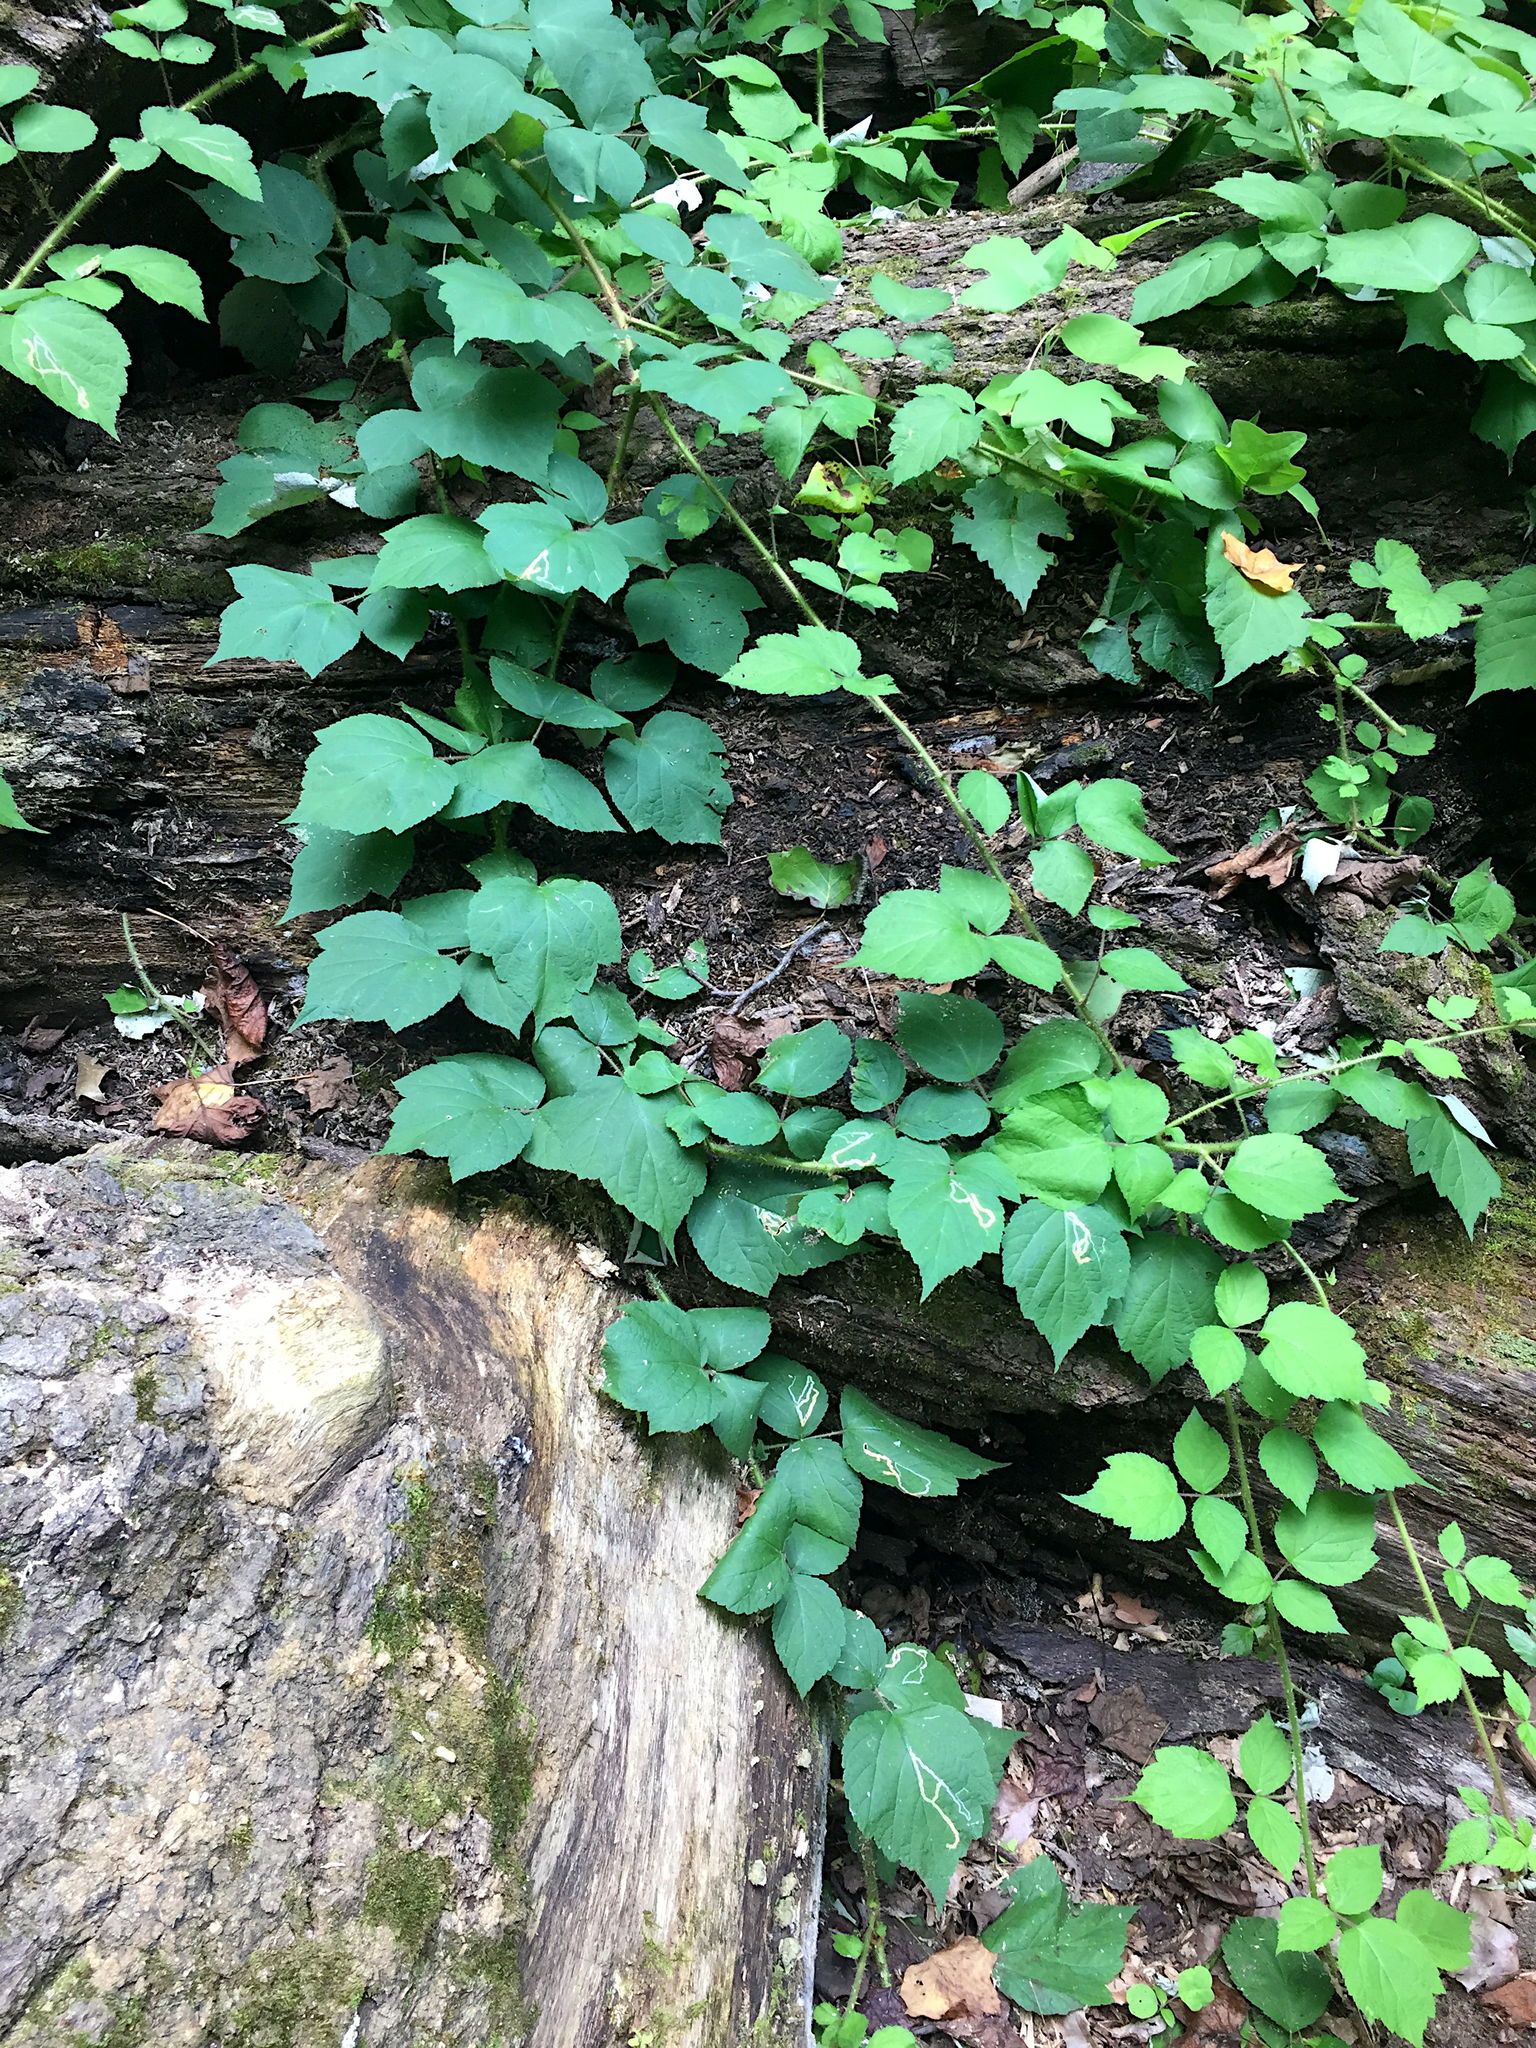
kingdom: Plantae
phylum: Tracheophyta
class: Magnoliopsida
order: Rosales
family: Rosaceae
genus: Rubus
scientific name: Rubus phoenicolasius
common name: Japanese wineberry
